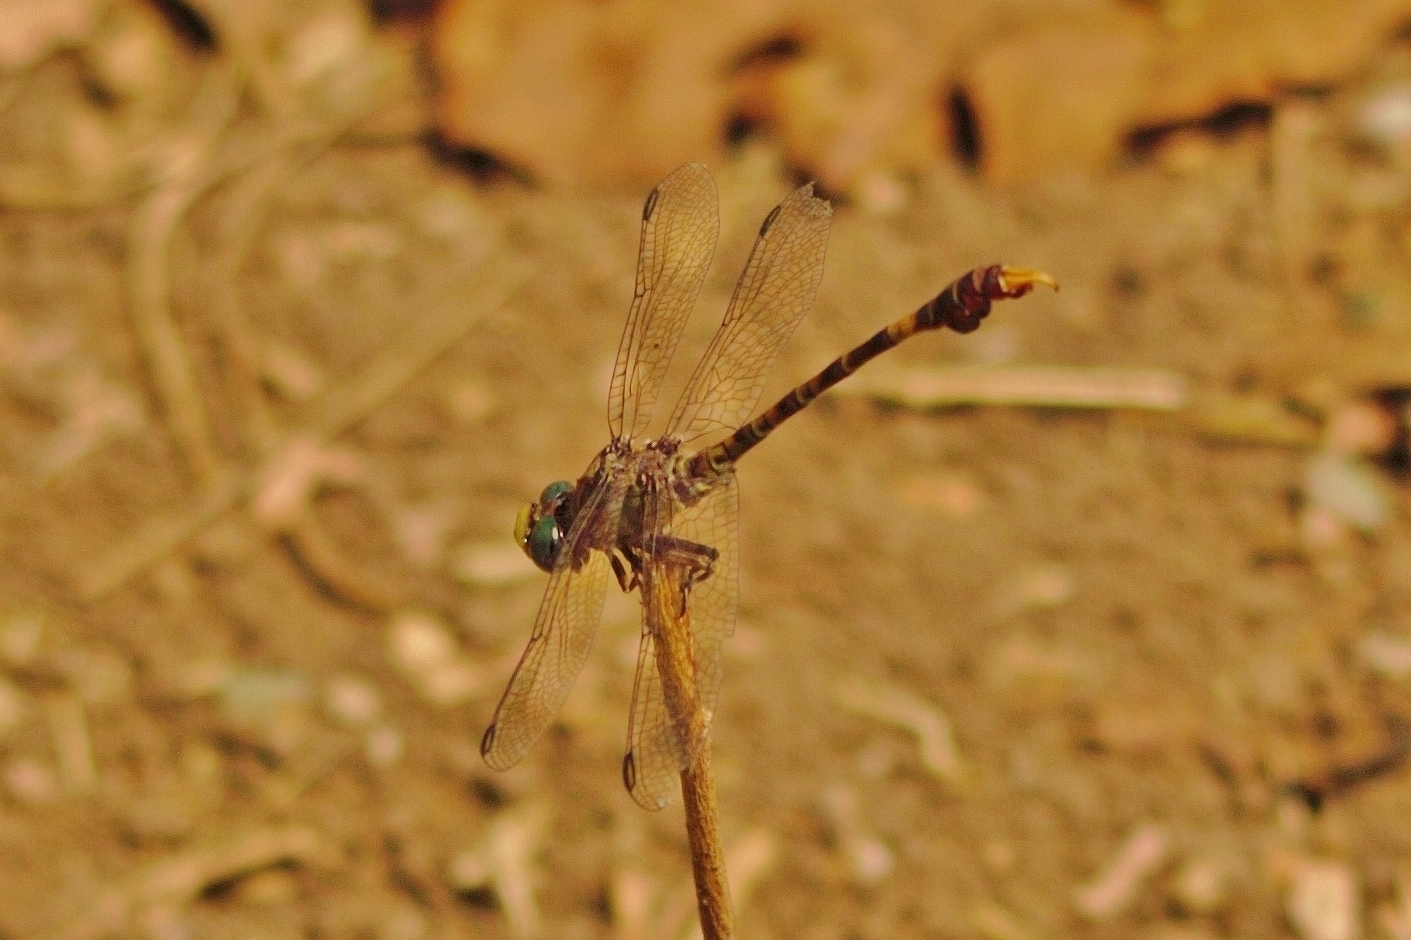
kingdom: Animalia
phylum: Arthropoda
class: Insecta
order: Odonata
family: Gomphidae
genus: Paragomphus
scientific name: Paragomphus genei
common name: Common hooktail
